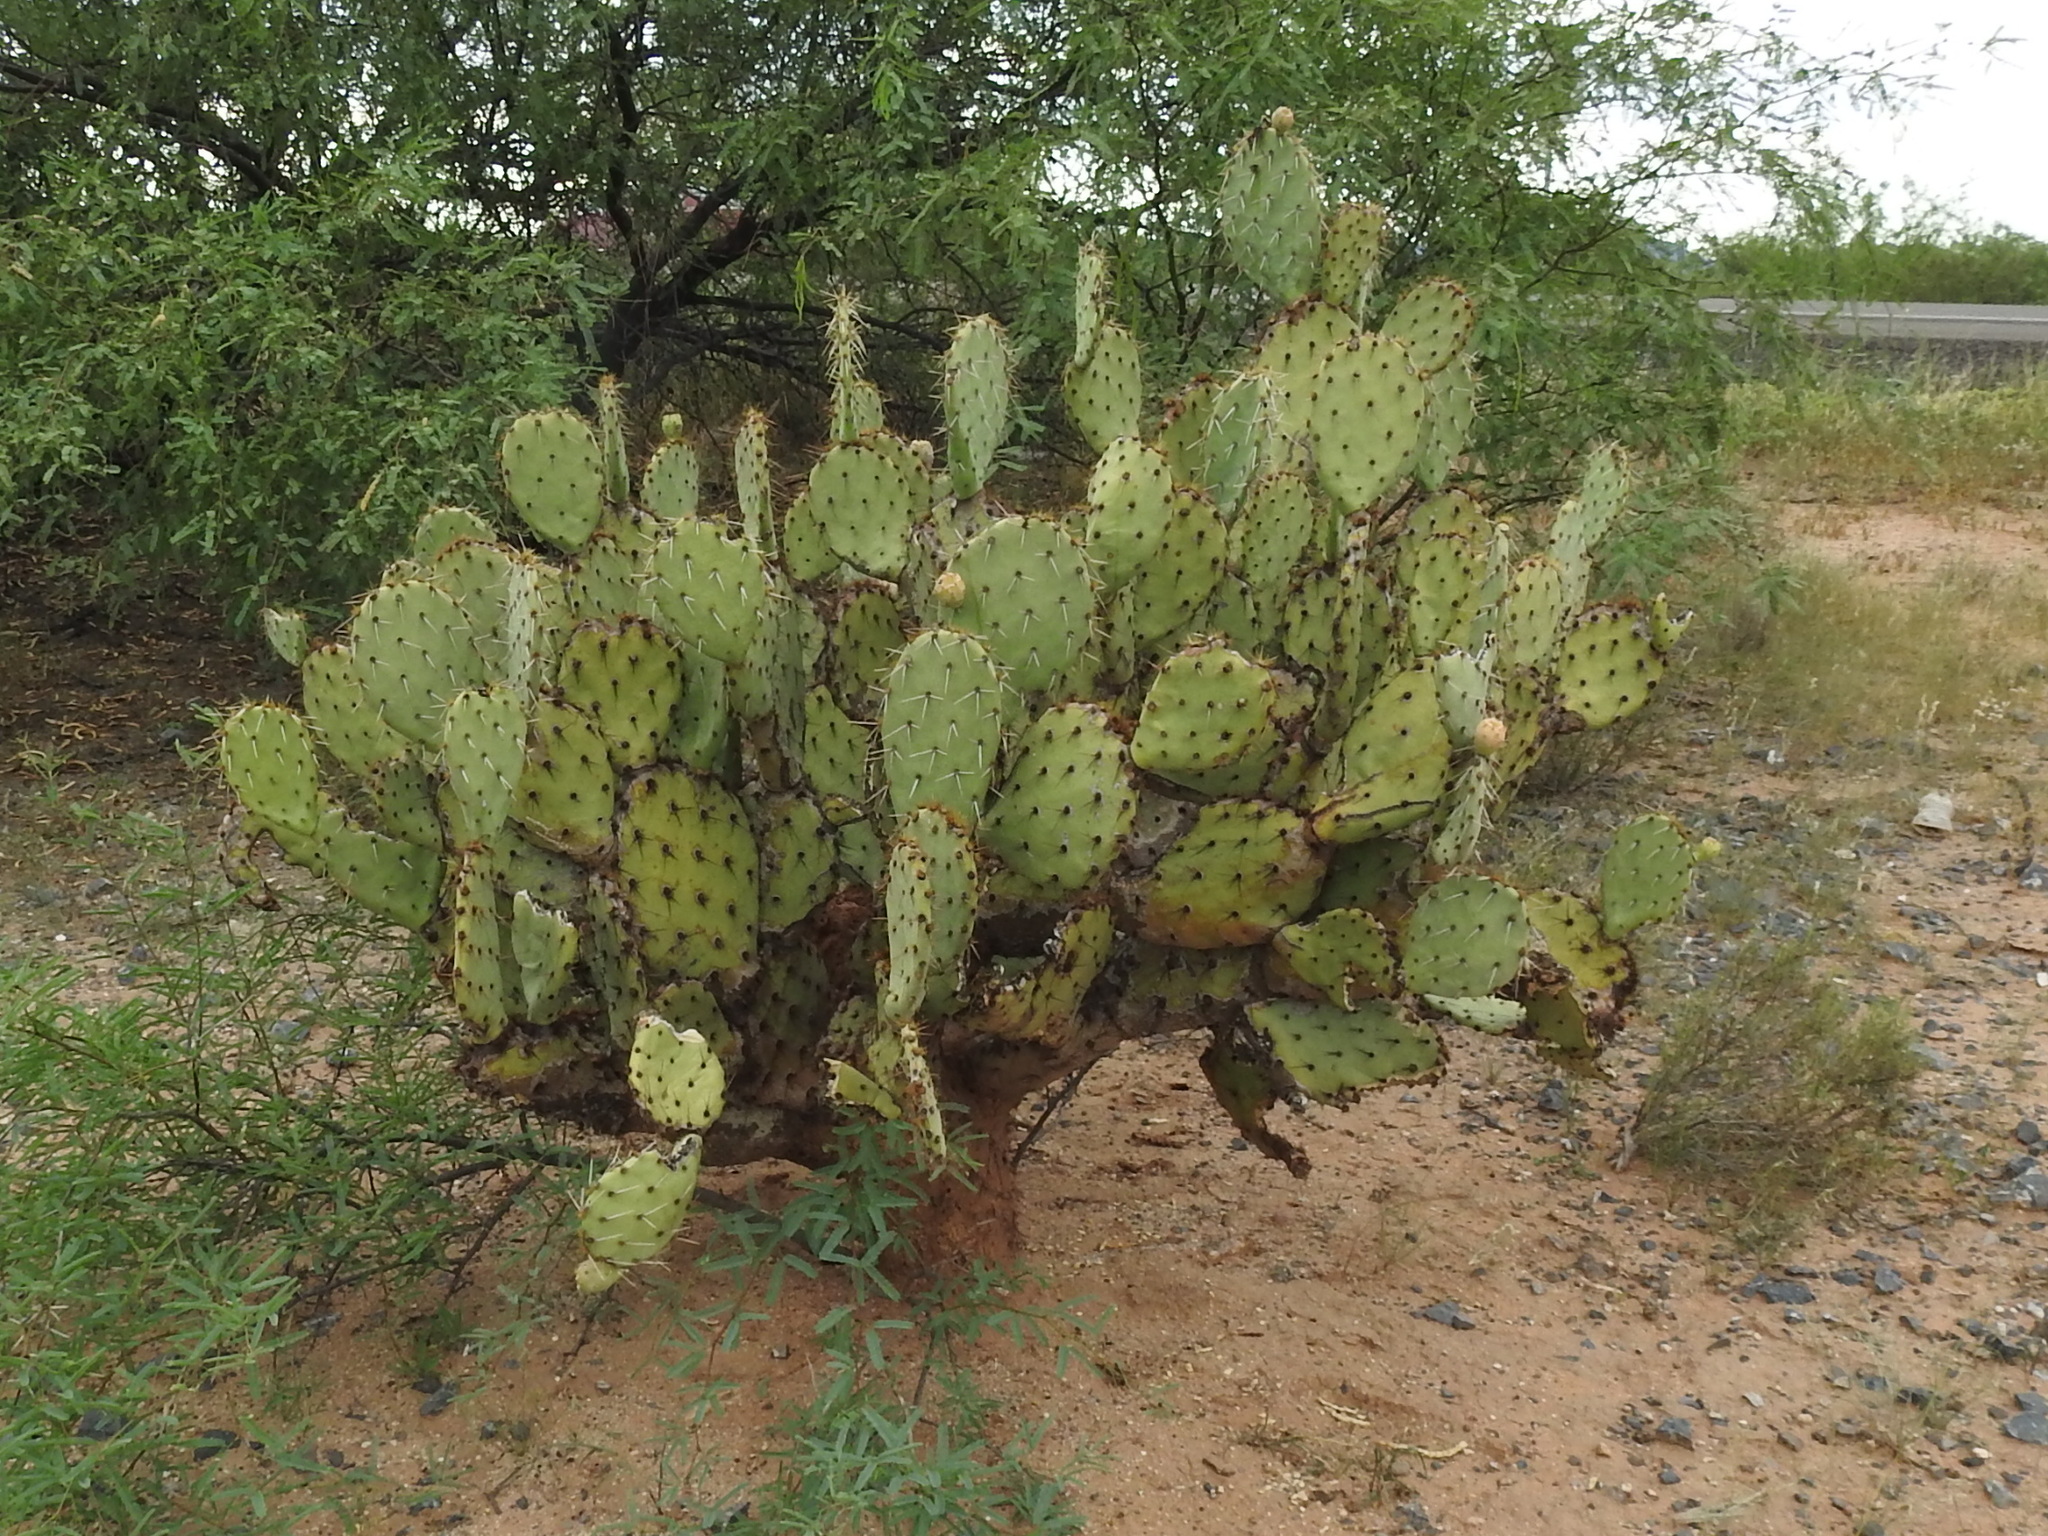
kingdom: Plantae
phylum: Tracheophyta
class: Magnoliopsida
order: Caryophyllales
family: Cactaceae
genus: Opuntia
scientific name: Opuntia engelmannii
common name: Cactus-apple
